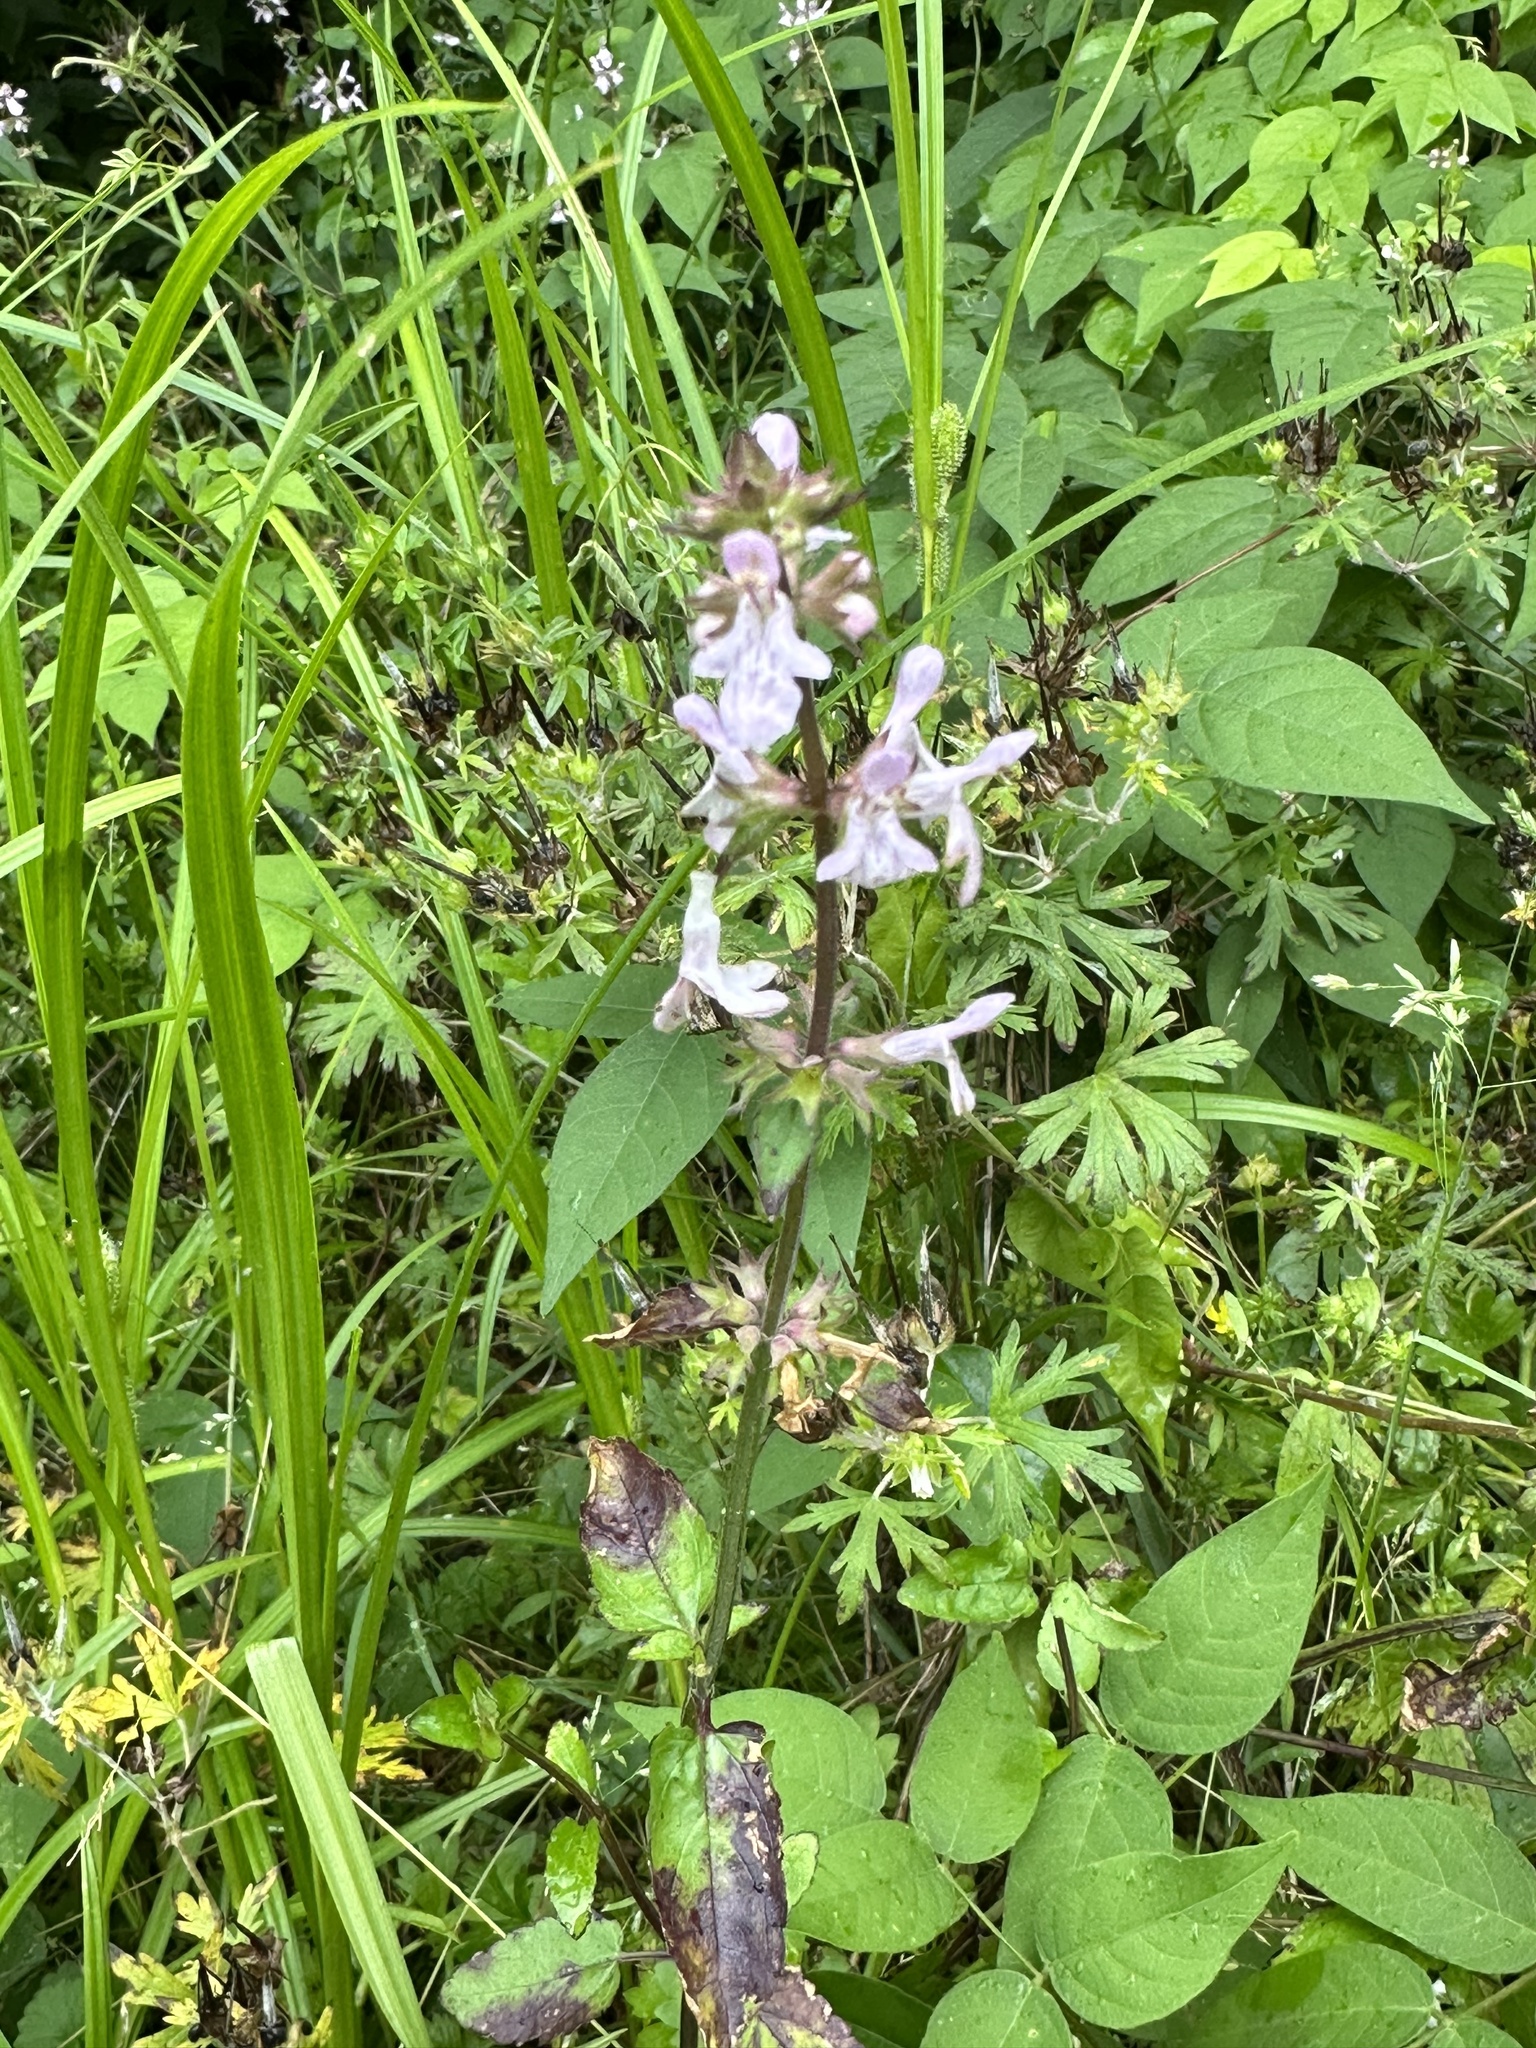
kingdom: Plantae
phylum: Tracheophyta
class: Magnoliopsida
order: Lamiales
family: Lamiaceae
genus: Stachys
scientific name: Stachys floridana
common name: Florida betony
